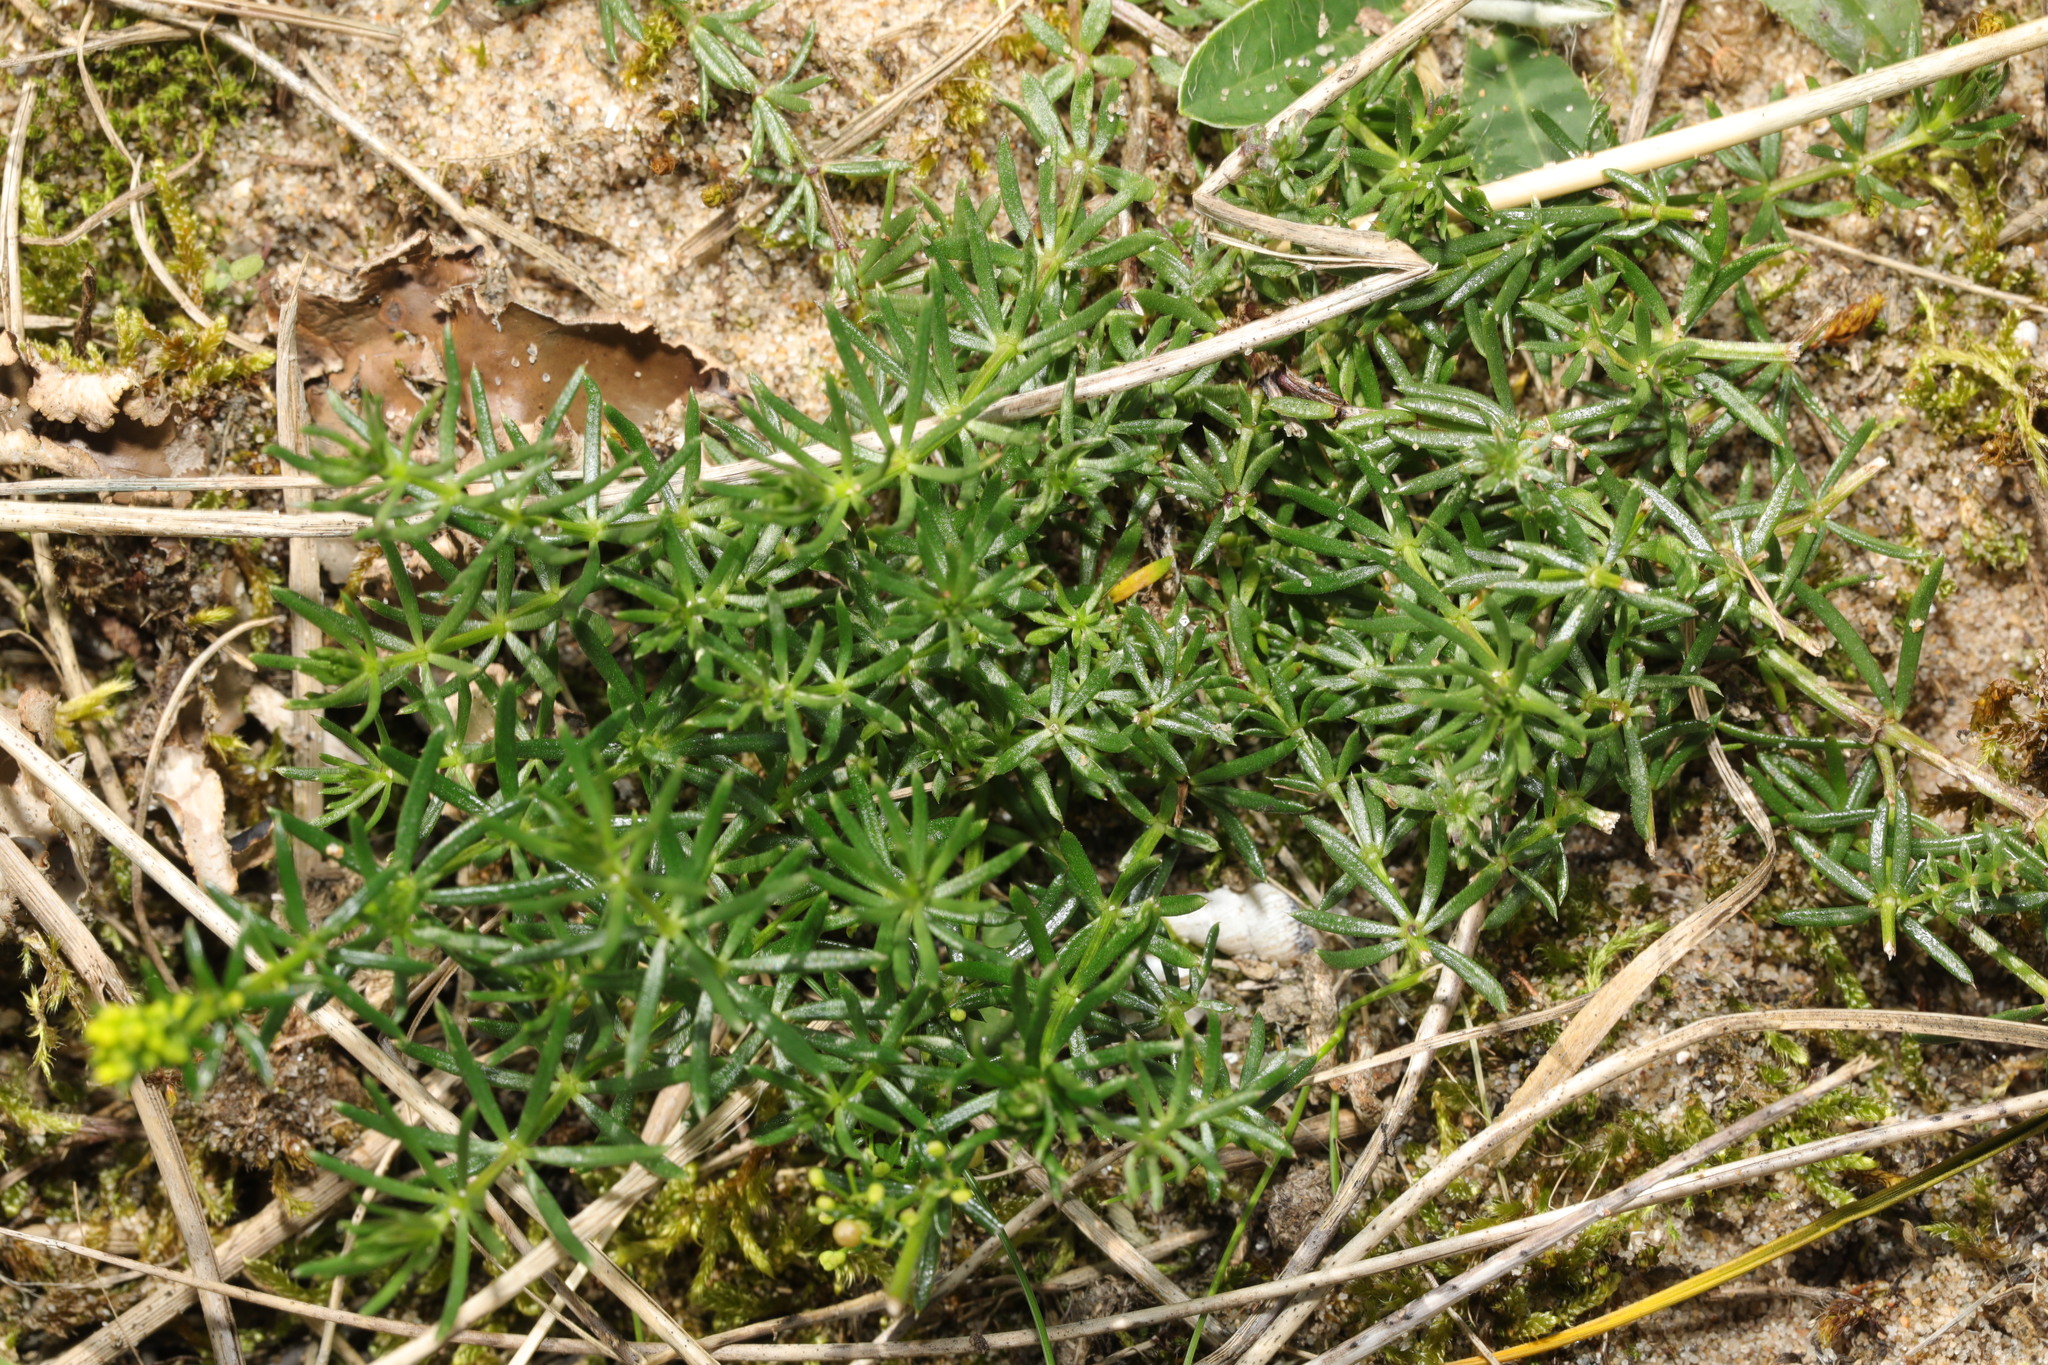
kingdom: Plantae
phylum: Tracheophyta
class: Magnoliopsida
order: Gentianales
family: Rubiaceae
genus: Galium
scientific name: Galium verum
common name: Lady's bedstraw
